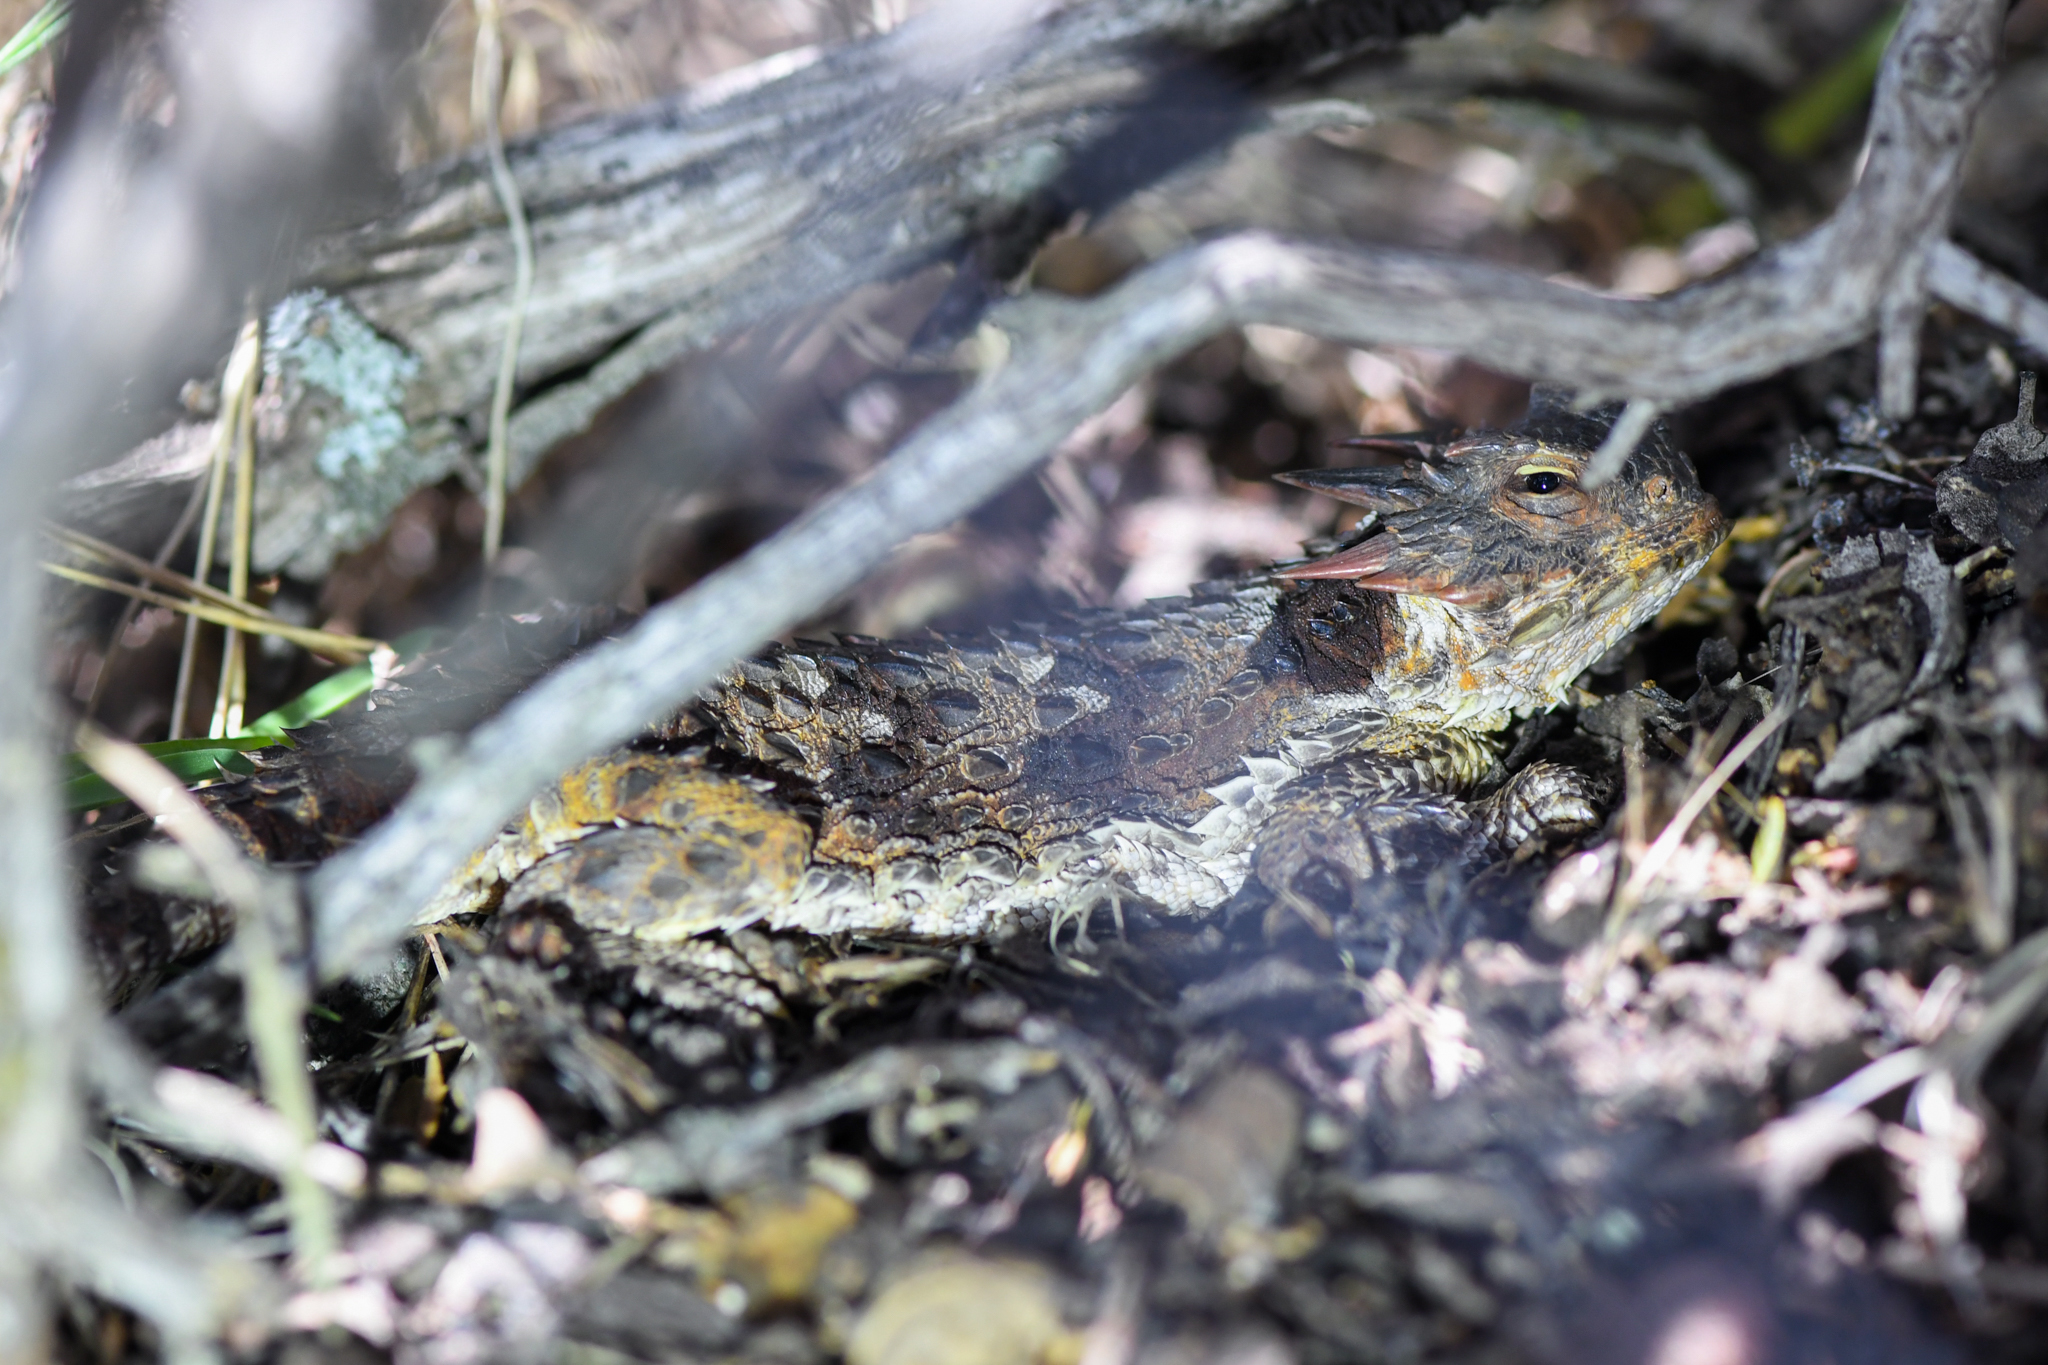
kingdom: Animalia
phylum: Chordata
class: Squamata
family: Phrynosomatidae
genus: Phrynosoma
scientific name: Phrynosoma blainvillii
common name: San diego horned lizard
